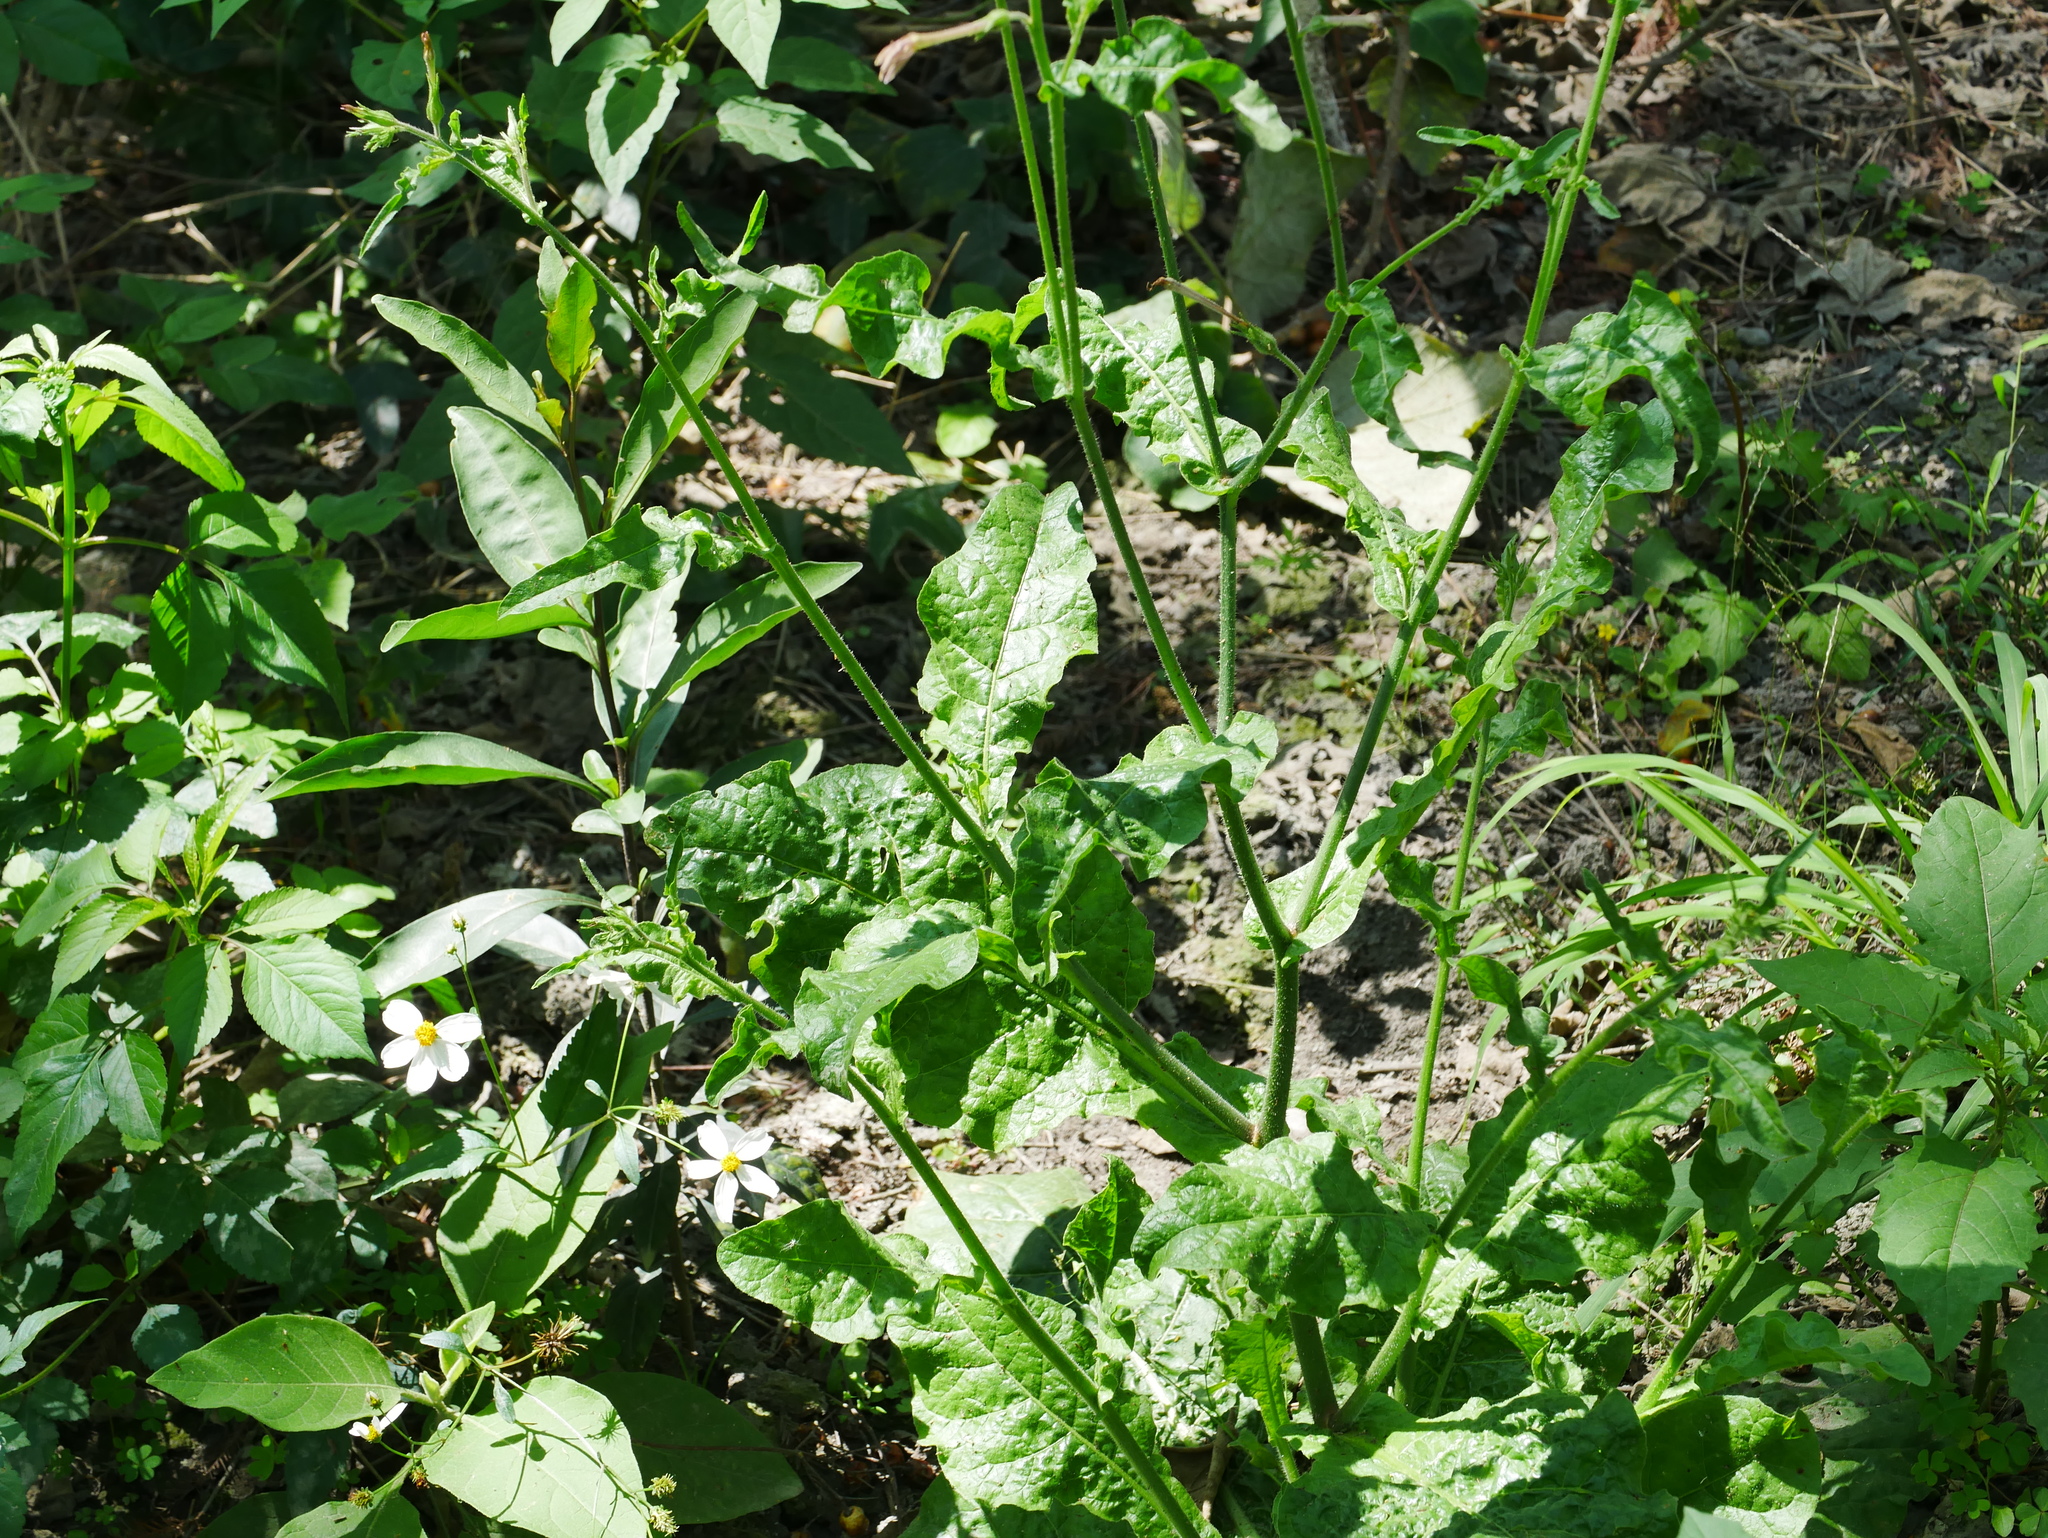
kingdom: Plantae
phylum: Tracheophyta
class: Magnoliopsida
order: Solanales
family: Solanaceae
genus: Nicotiana
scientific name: Nicotiana plumbaginifolia
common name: Tex-mex tobacco
